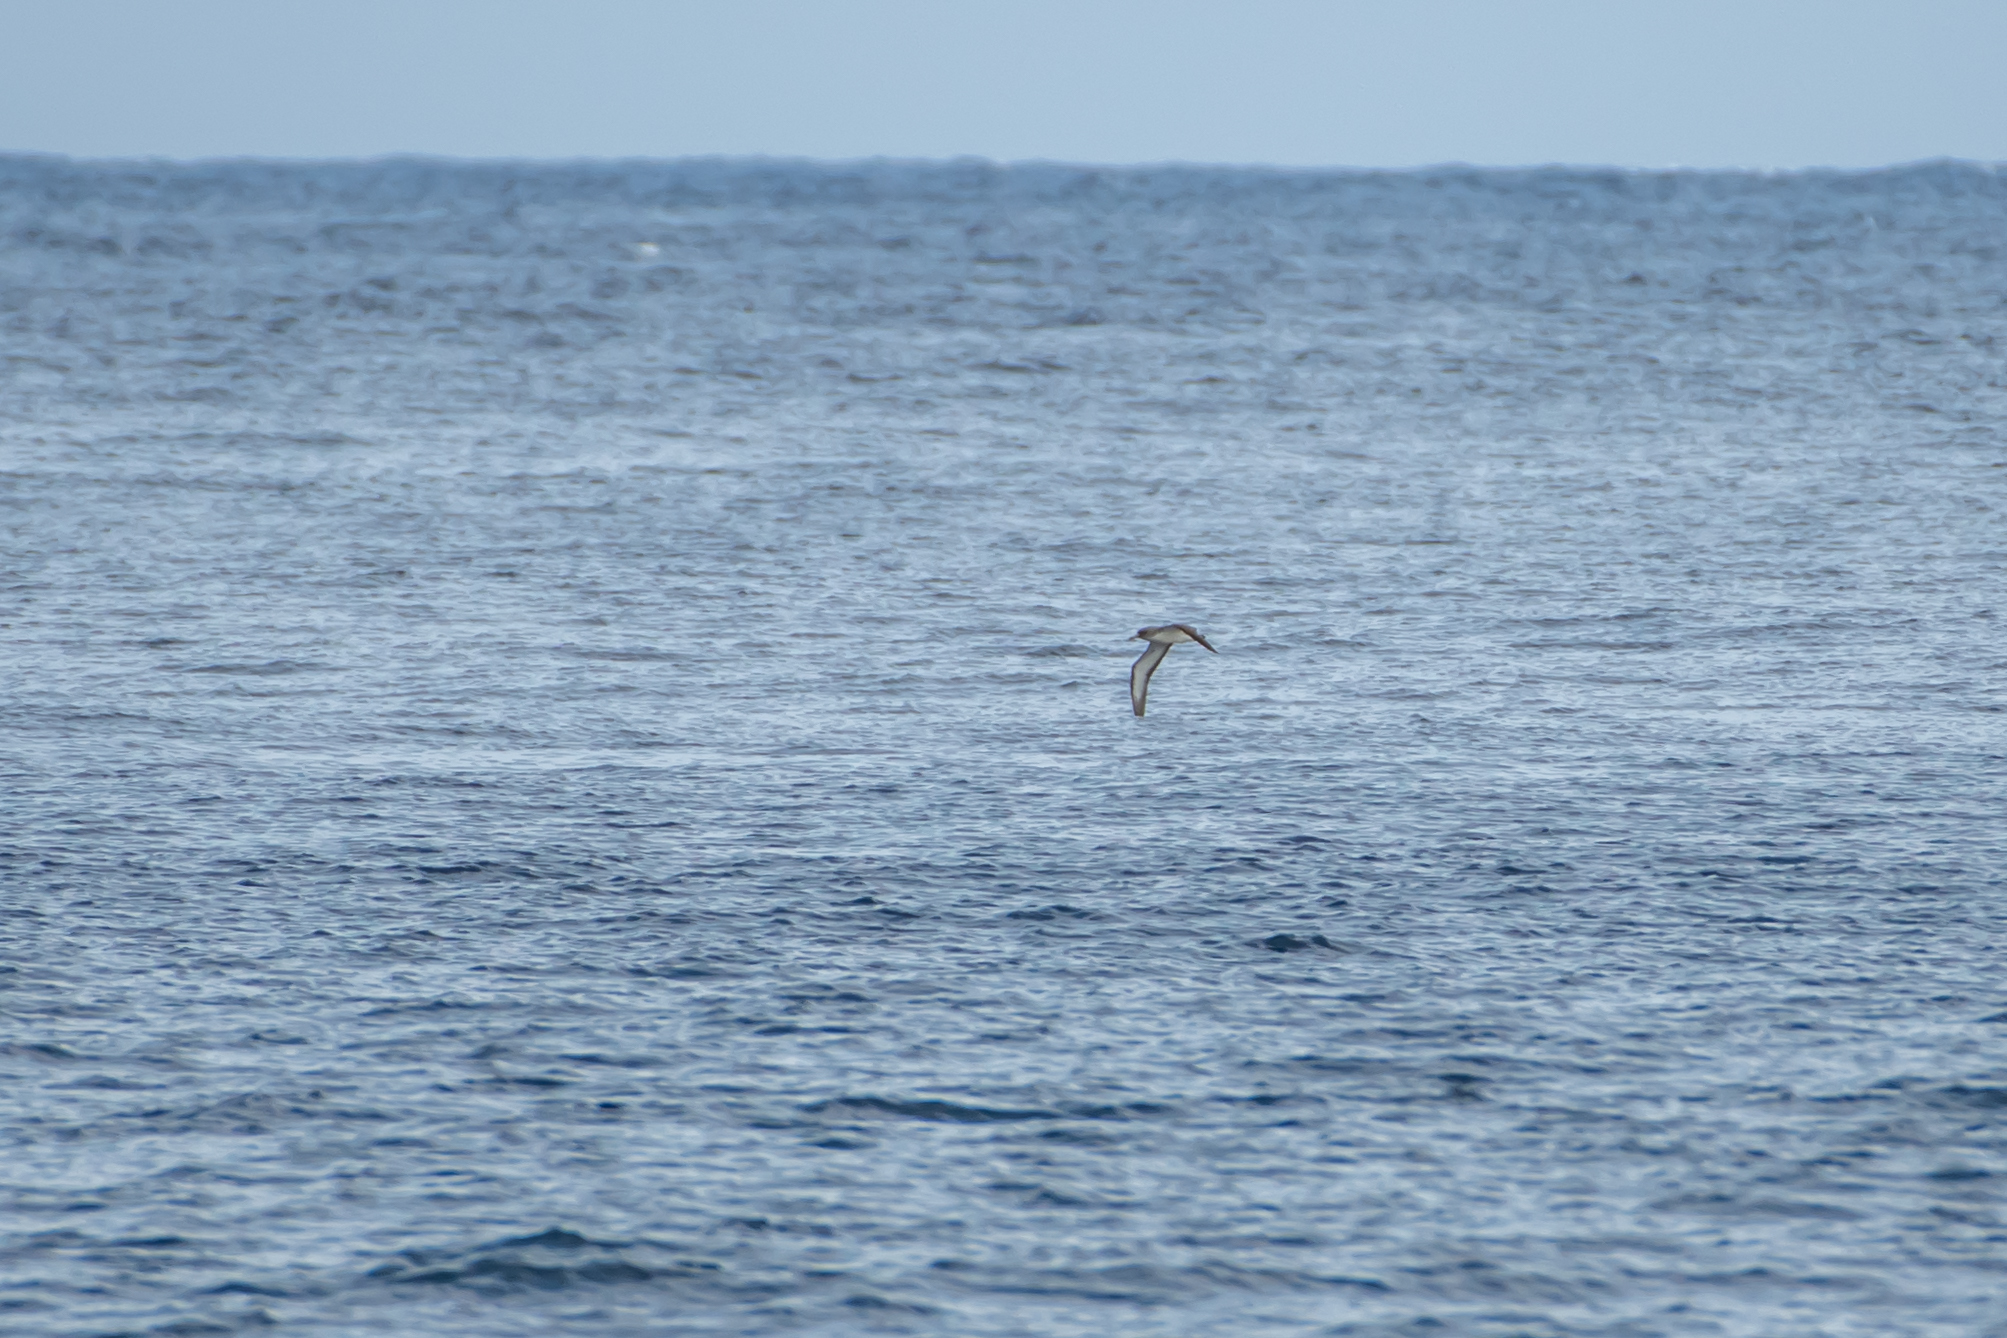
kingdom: Animalia
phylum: Chordata
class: Aves
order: Procellariiformes
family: Procellariidae
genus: Calonectris
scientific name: Calonectris diomedea
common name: Cory's shearwater
